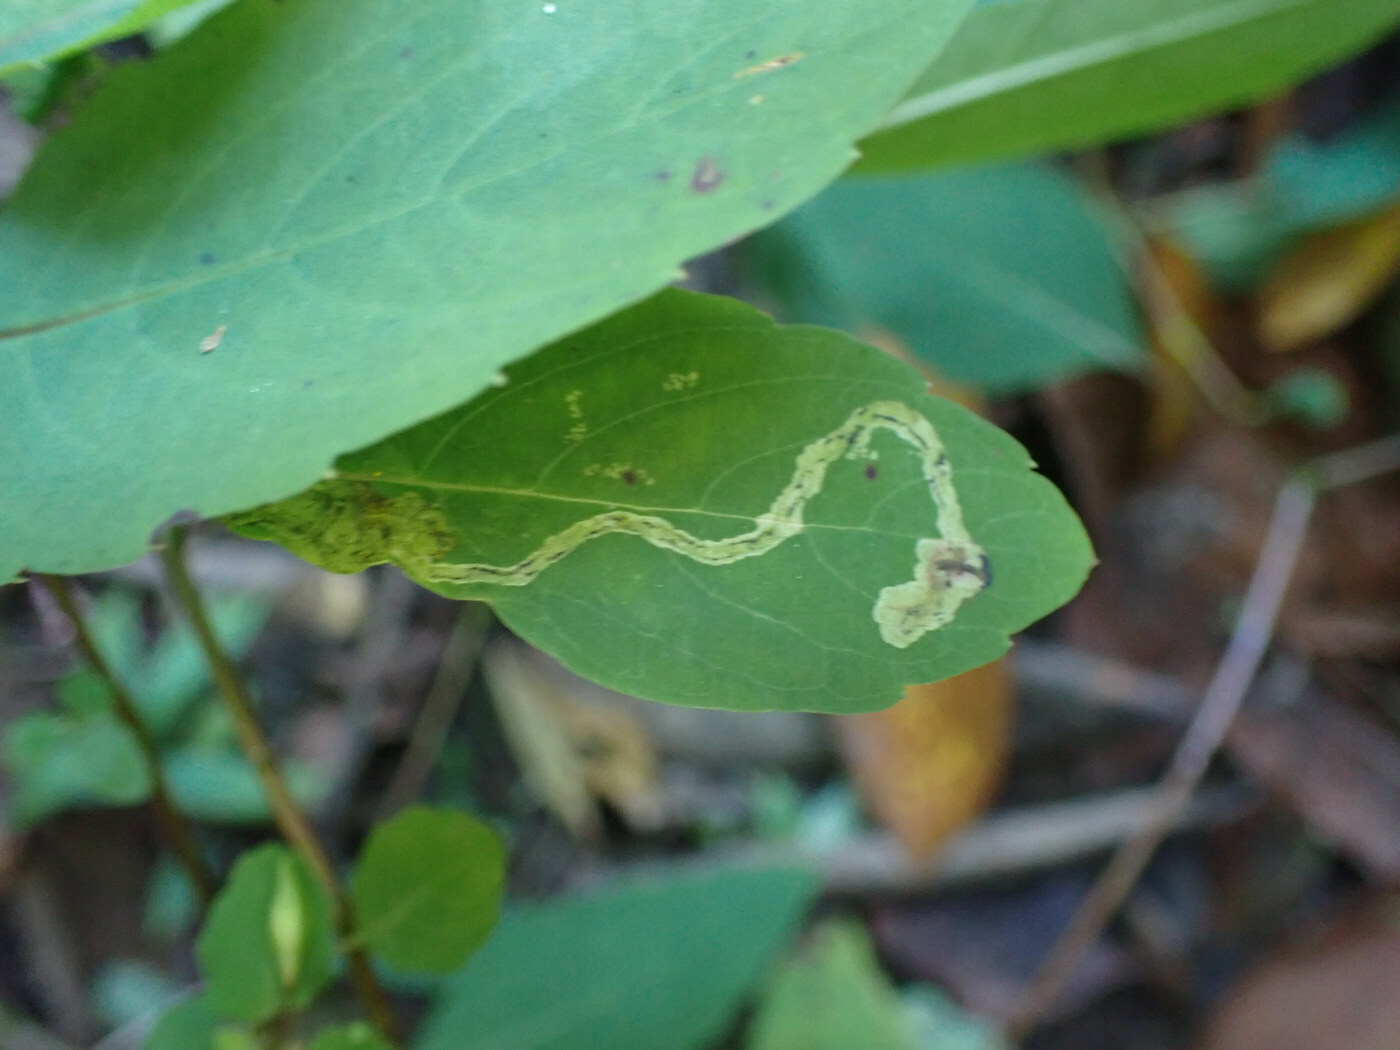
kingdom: Animalia
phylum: Arthropoda
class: Insecta
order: Diptera
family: Agromyzidae
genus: Phytoliriomyza
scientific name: Phytoliriomyza melampyga
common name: Jewelweed leaf-miner fly
